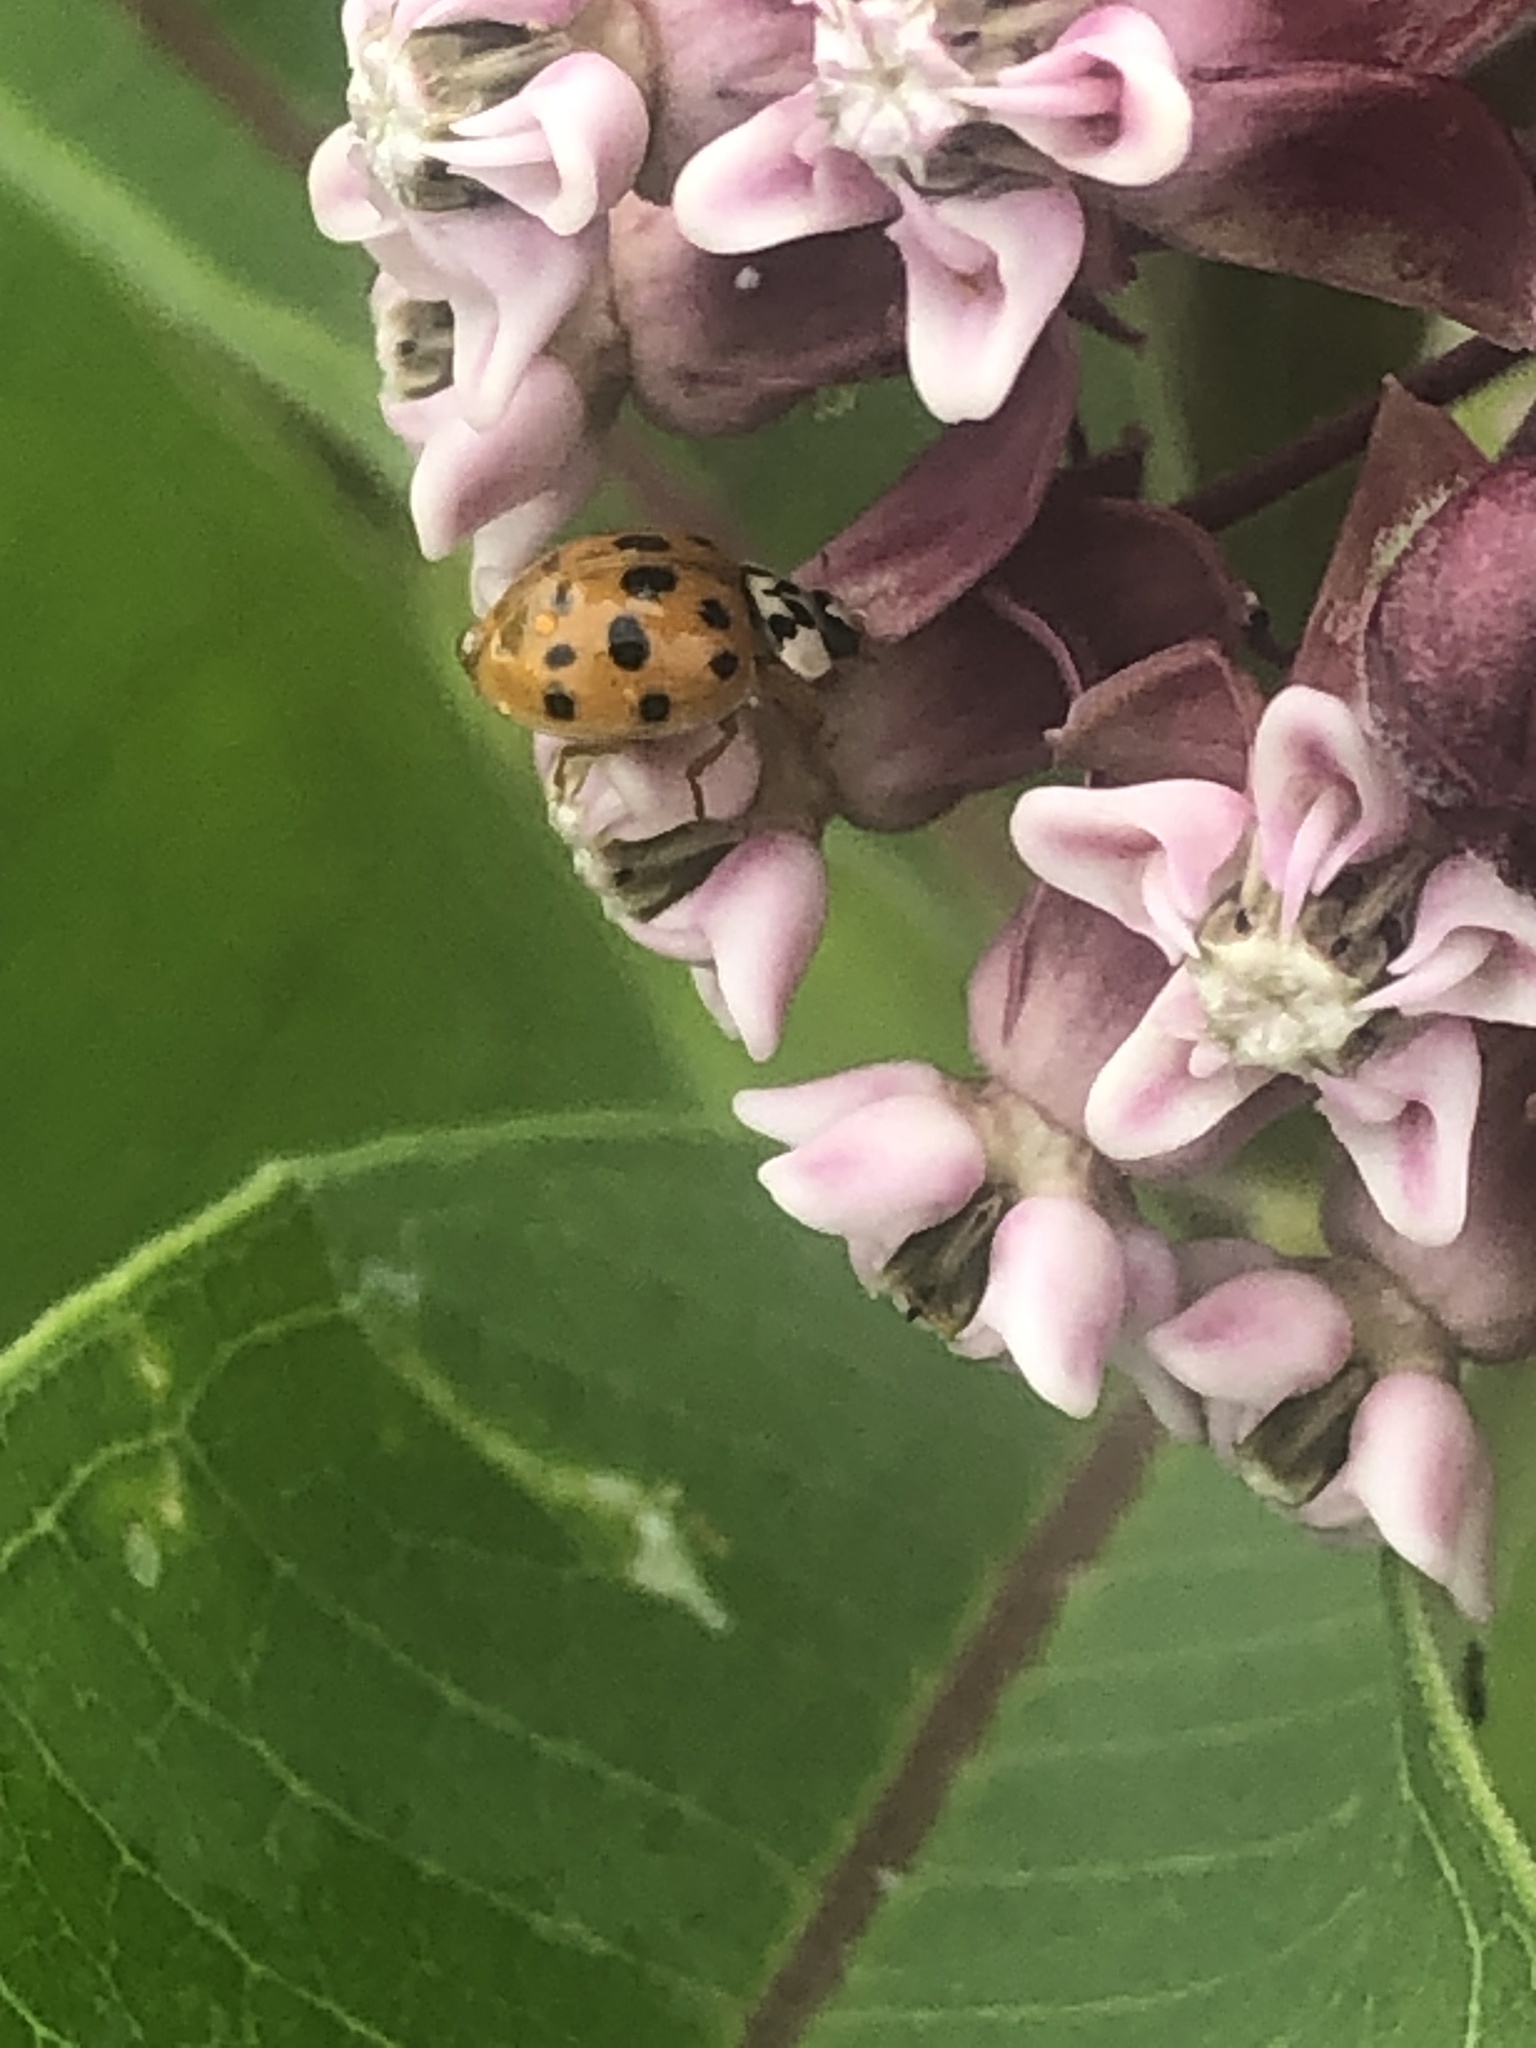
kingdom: Animalia
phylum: Arthropoda
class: Insecta
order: Coleoptera
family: Coccinellidae
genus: Harmonia
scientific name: Harmonia axyridis
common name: Harlequin ladybird
